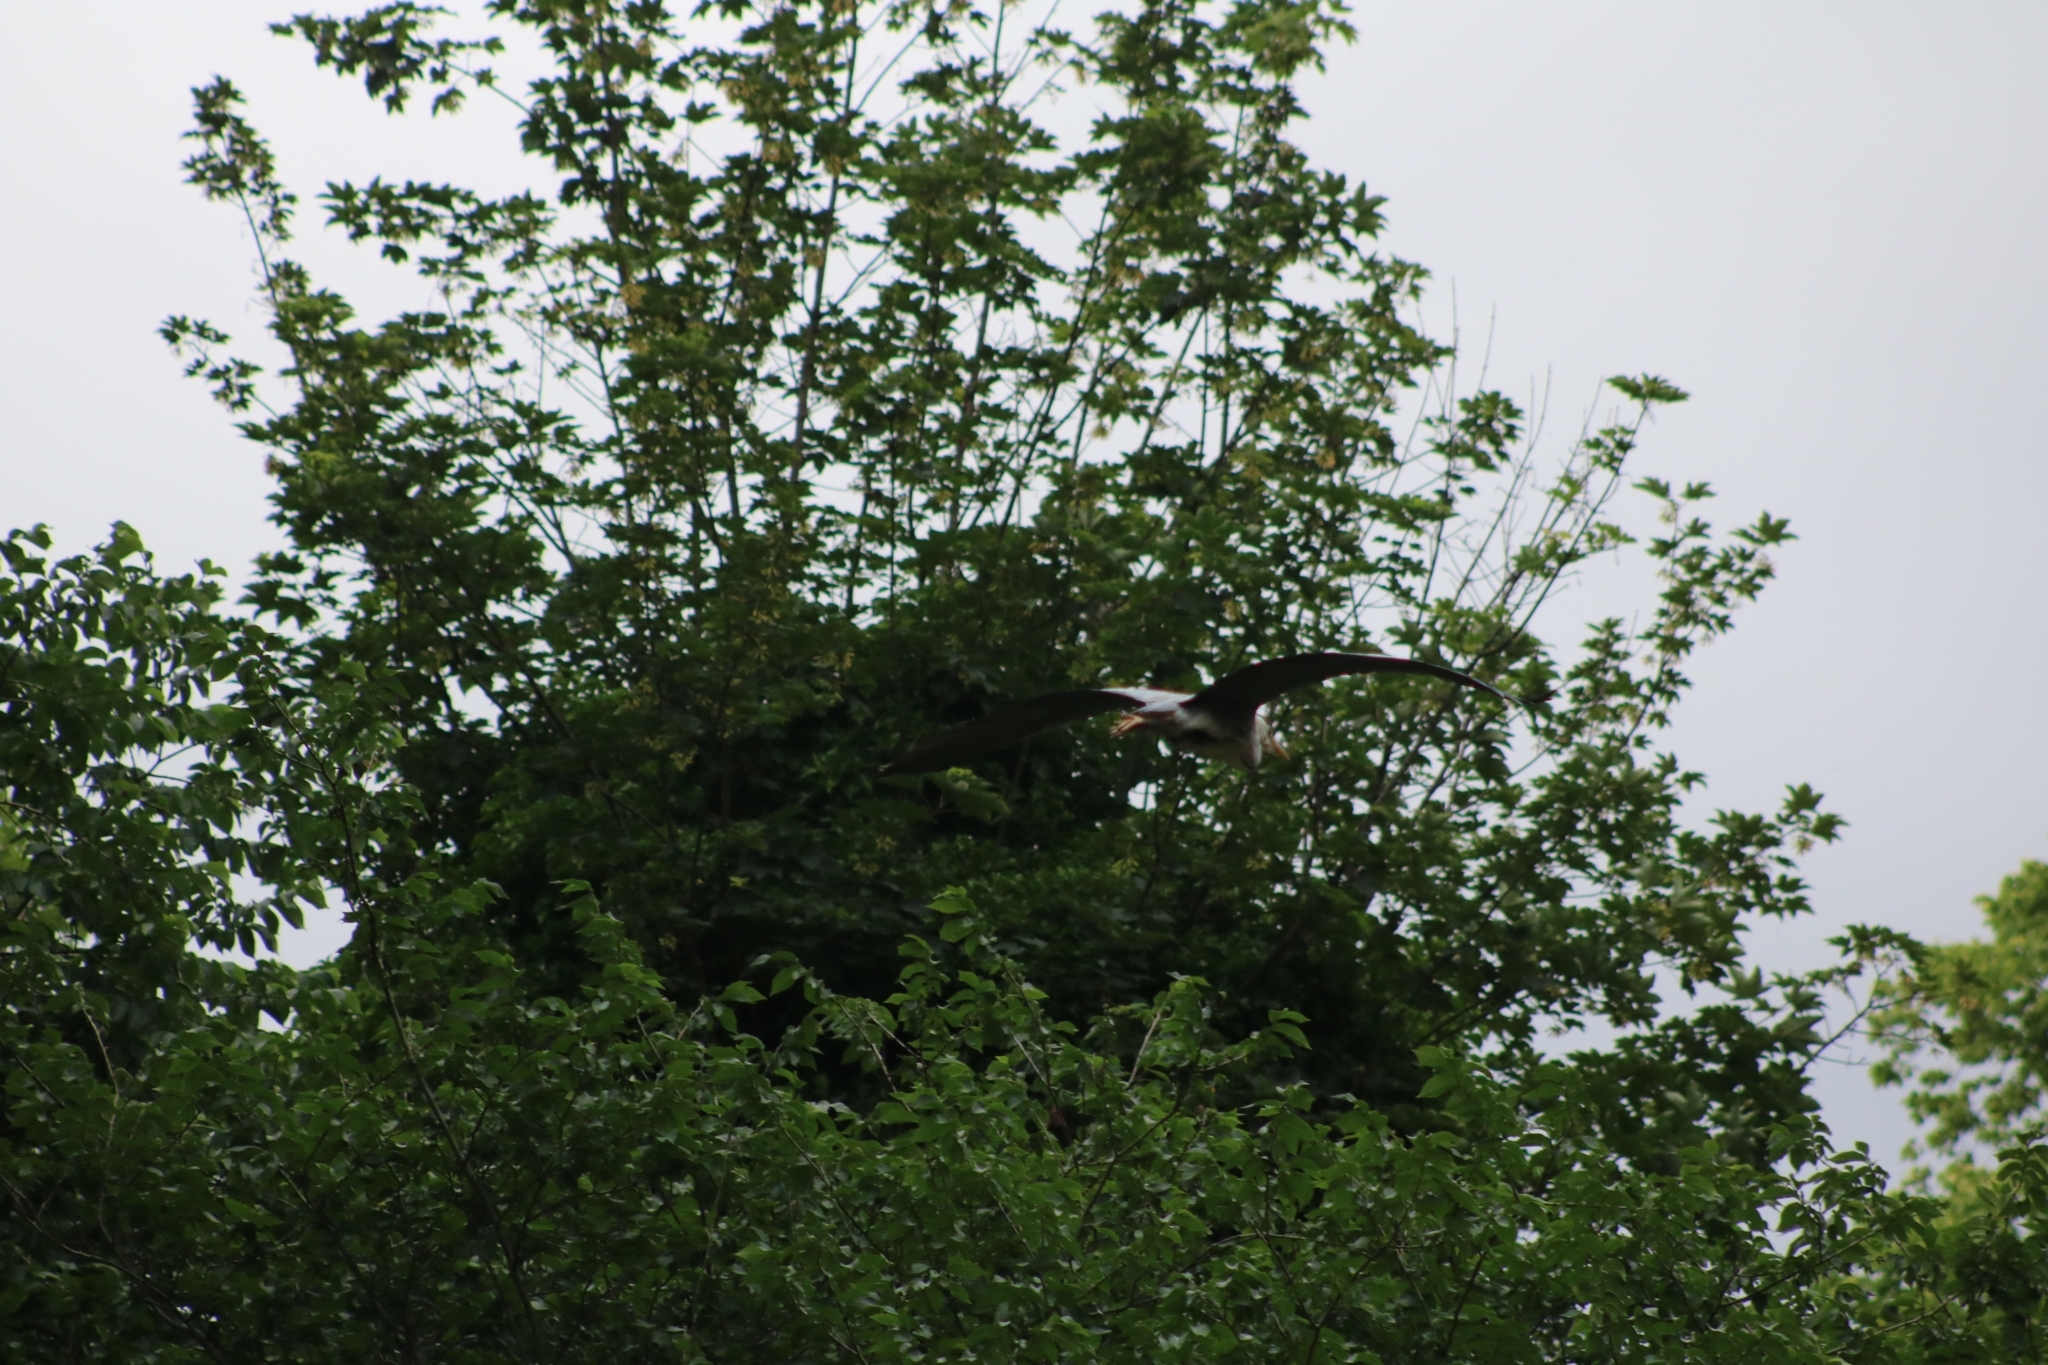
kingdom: Animalia
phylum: Chordata
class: Aves
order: Pelecaniformes
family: Ardeidae
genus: Ardea
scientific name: Ardea cinerea
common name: Grey heron
